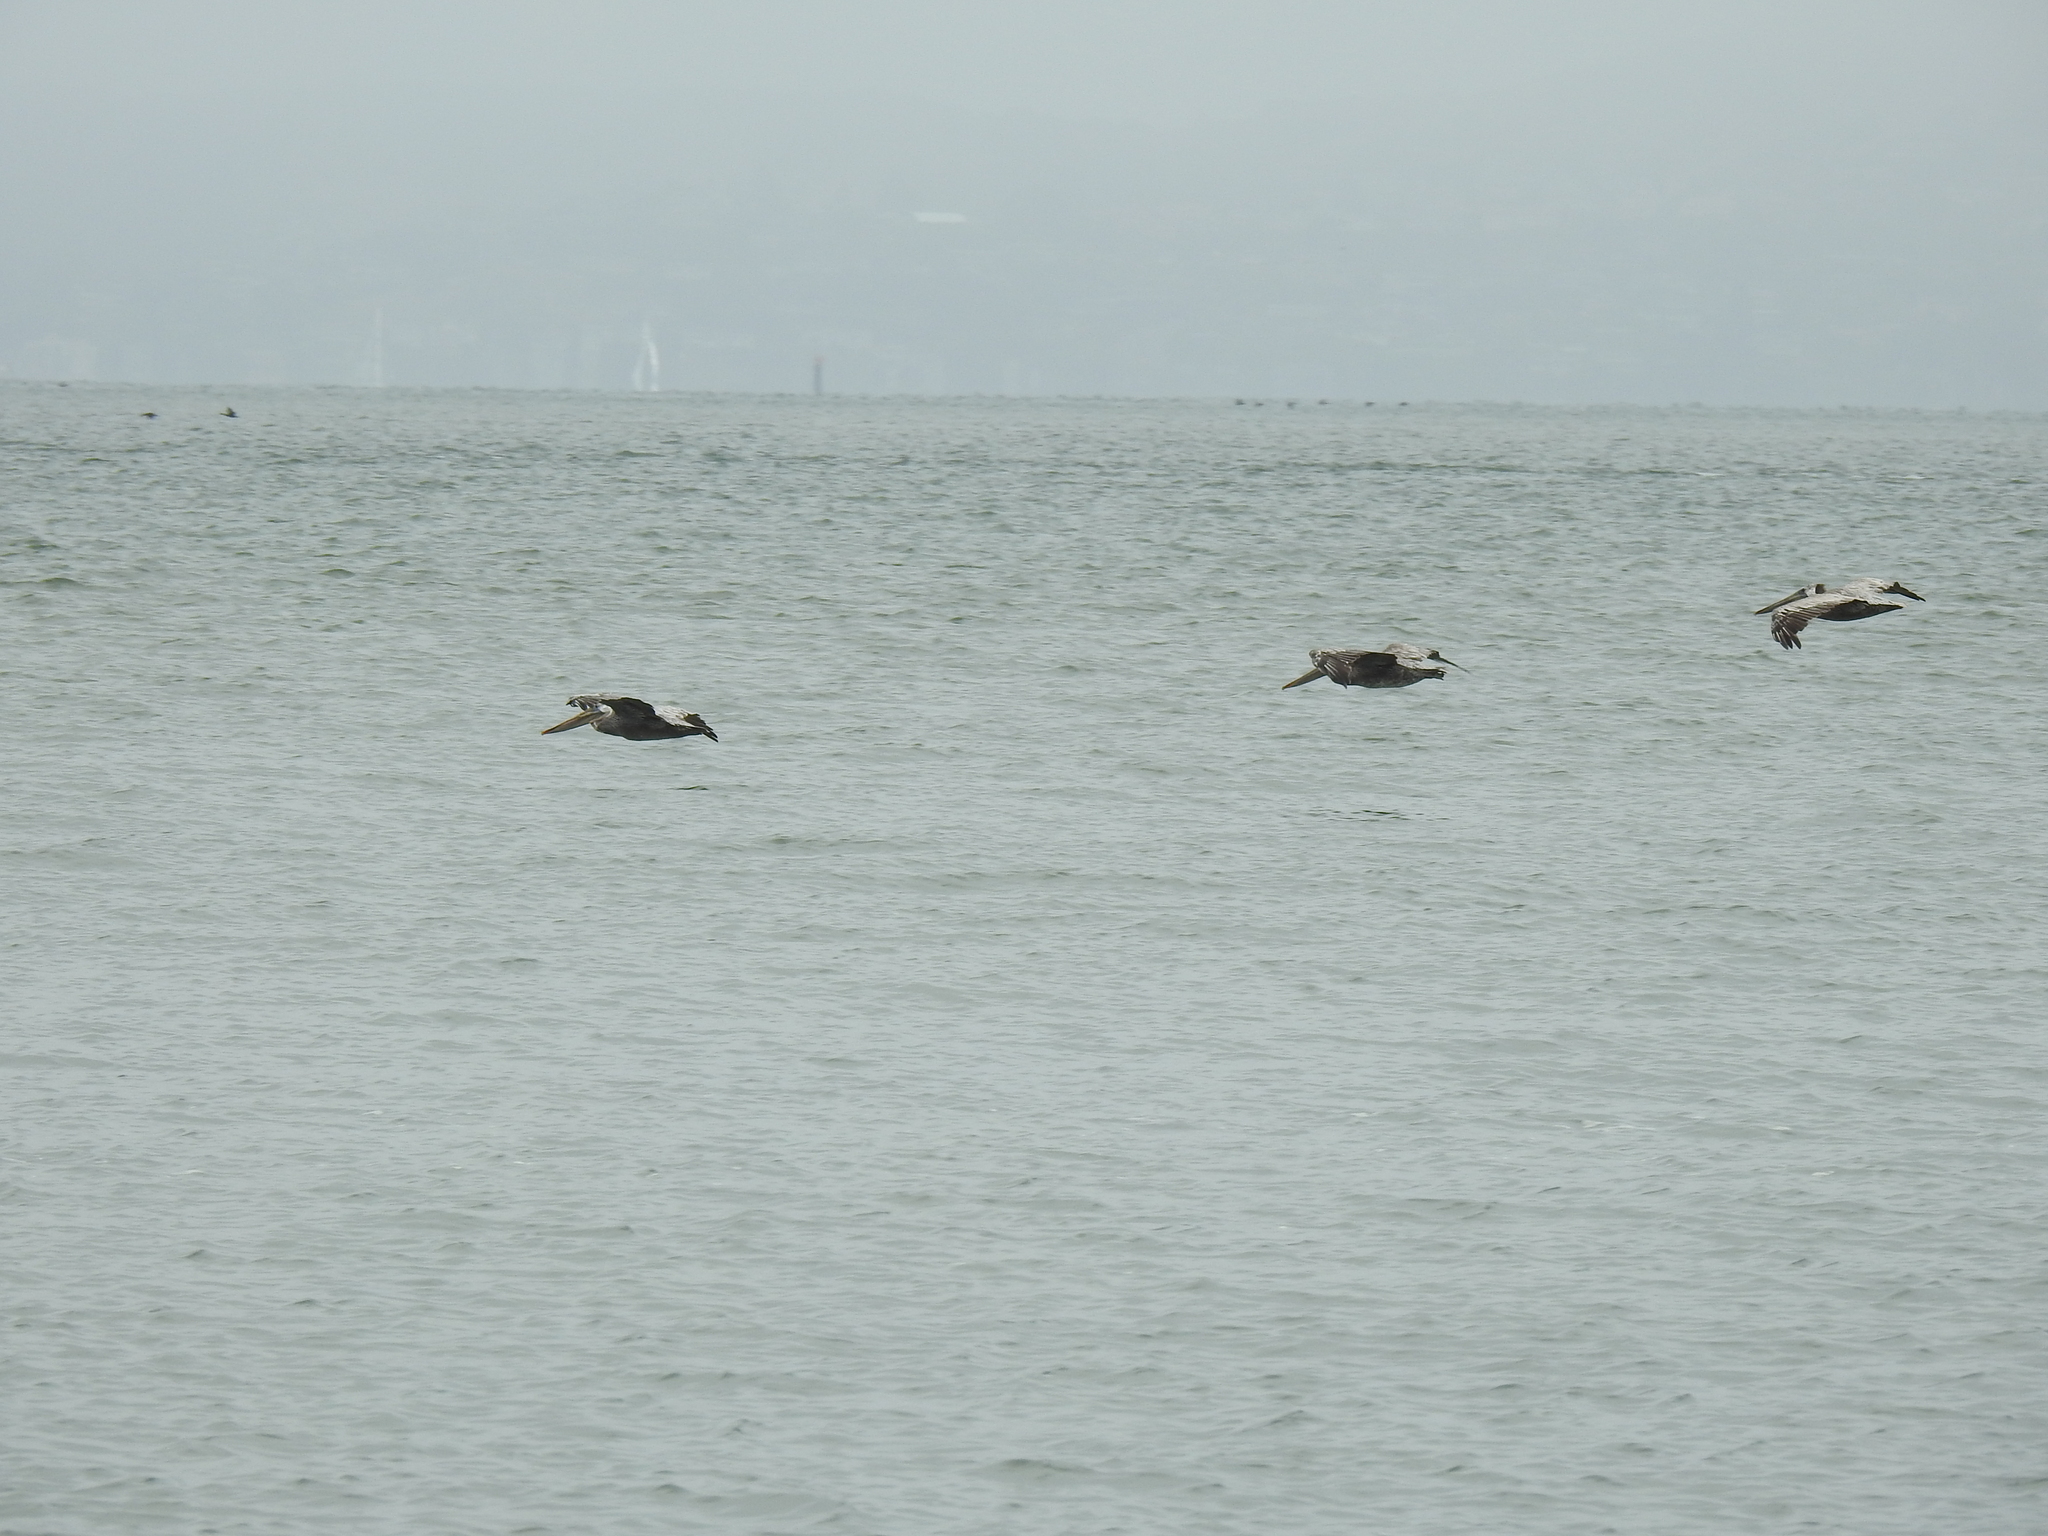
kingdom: Animalia
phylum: Chordata
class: Aves
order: Pelecaniformes
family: Pelecanidae
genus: Pelecanus
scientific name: Pelecanus occidentalis
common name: Brown pelican
